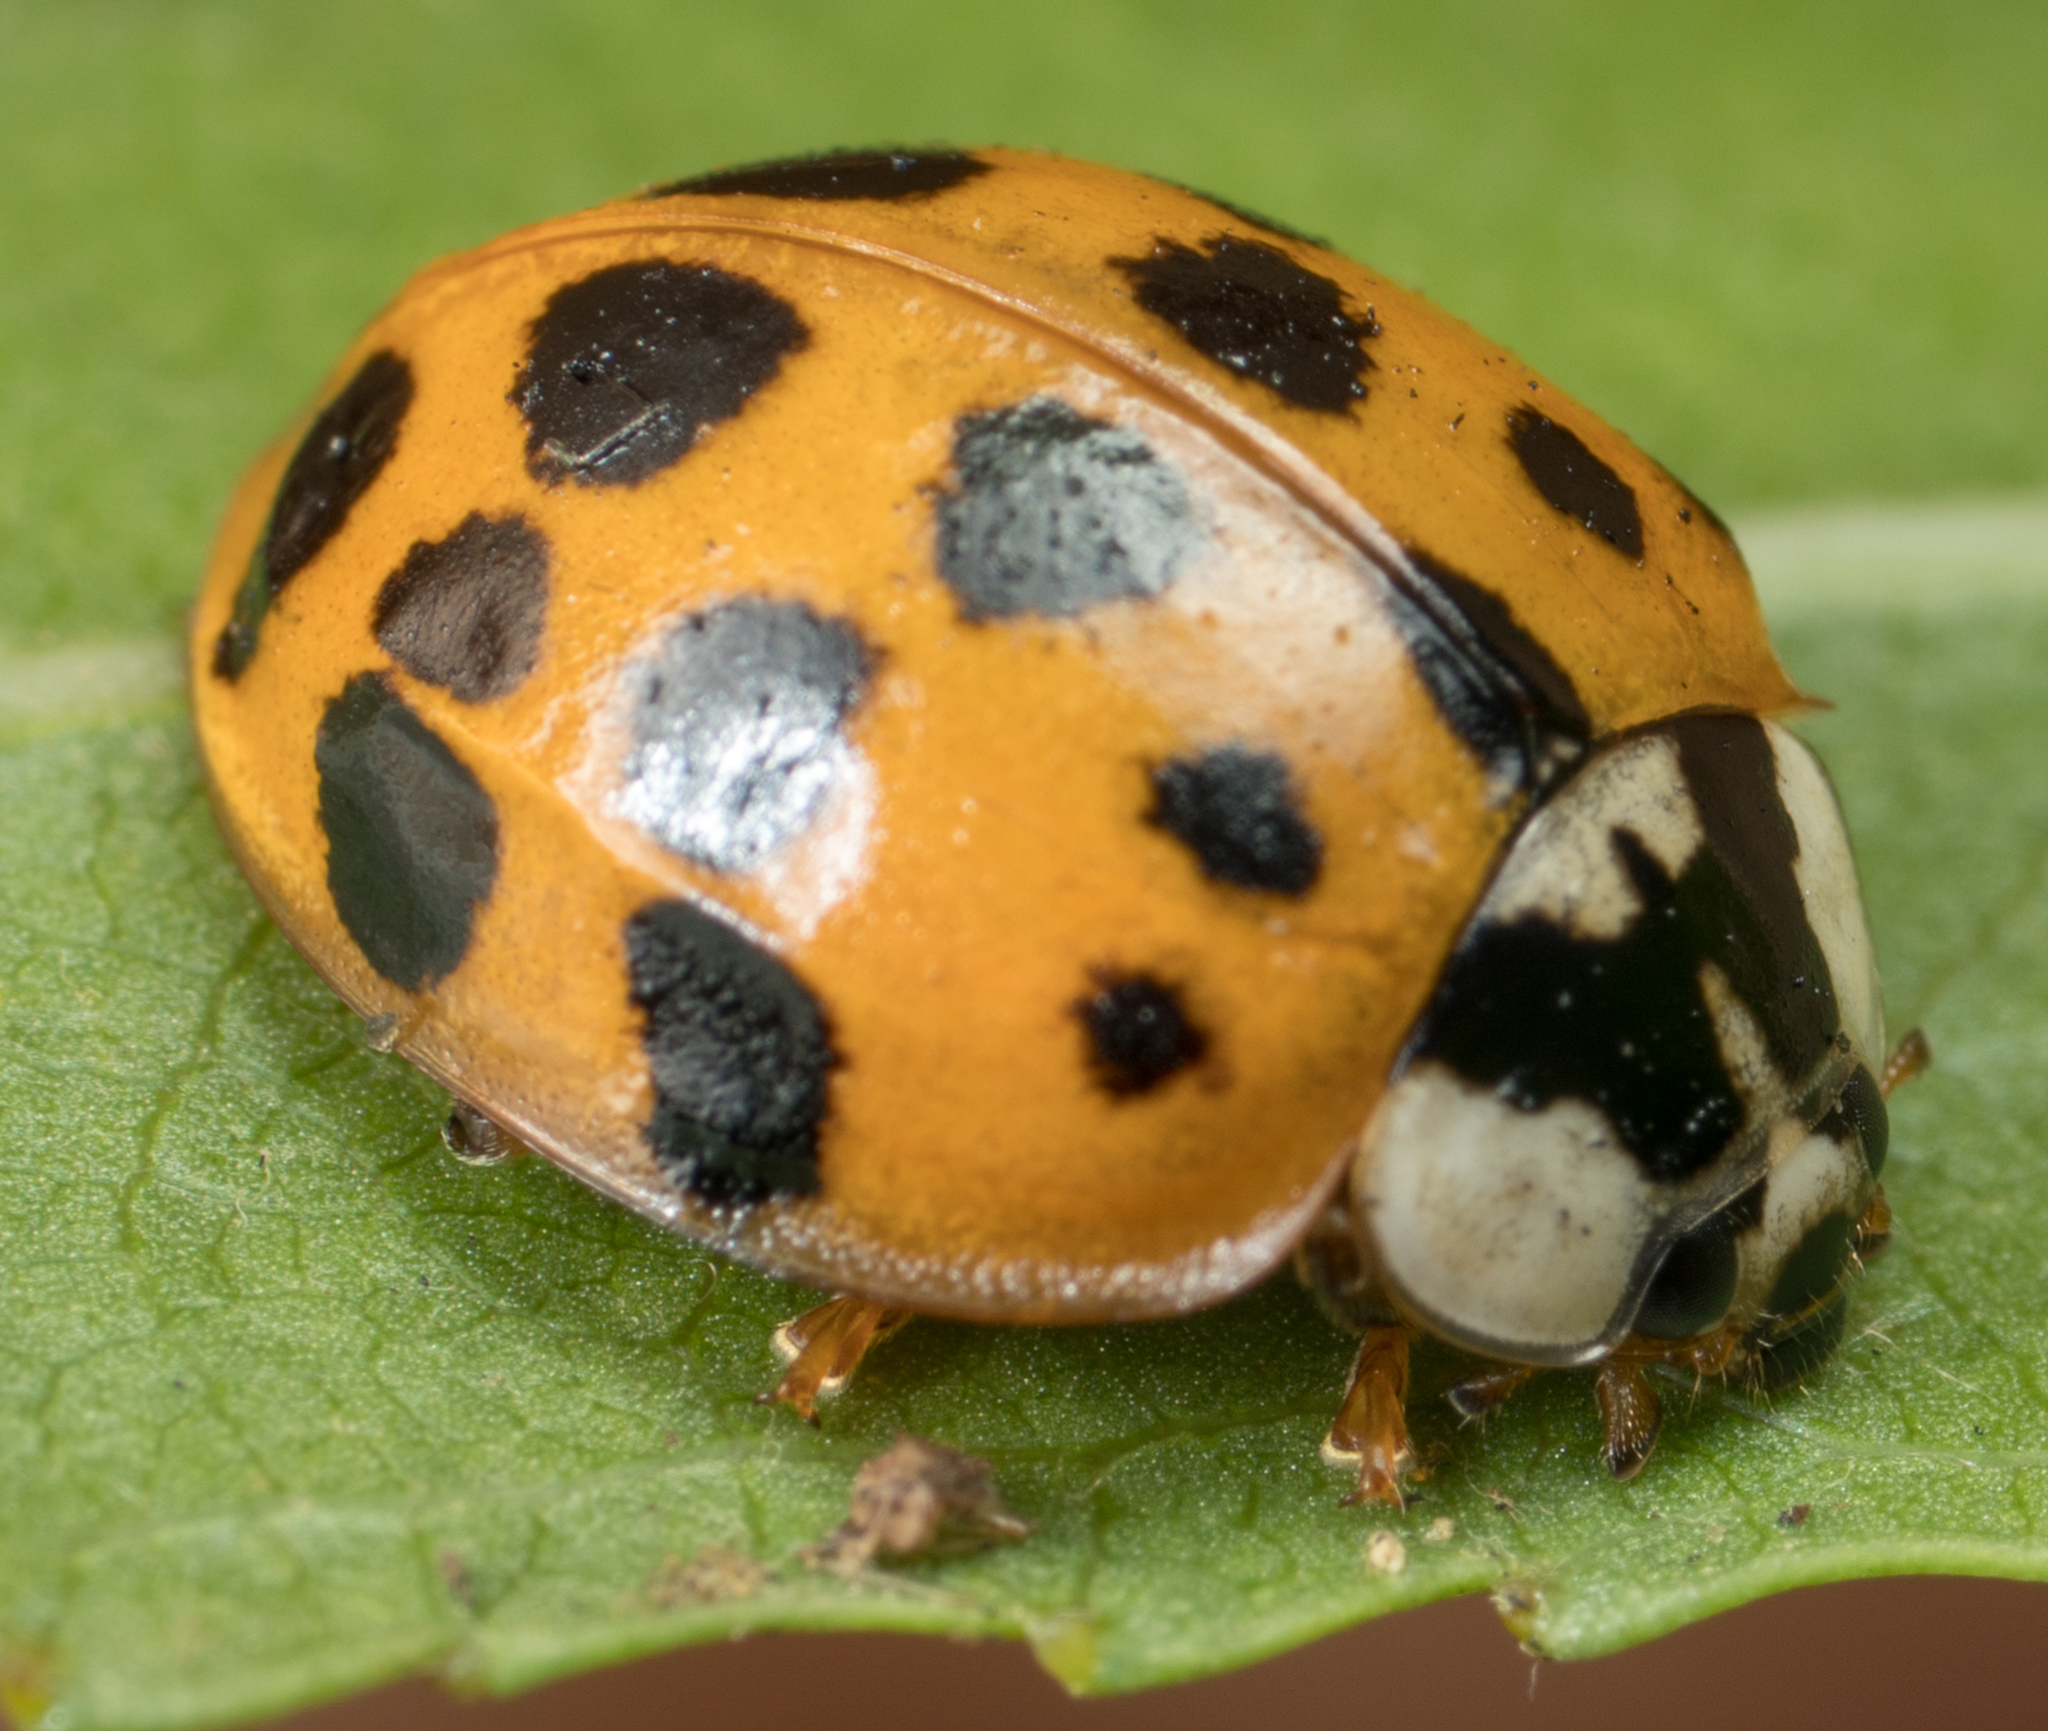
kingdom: Animalia
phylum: Arthropoda
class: Insecta
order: Coleoptera
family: Coccinellidae
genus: Harmonia
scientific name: Harmonia axyridis
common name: Harlequin ladybird
